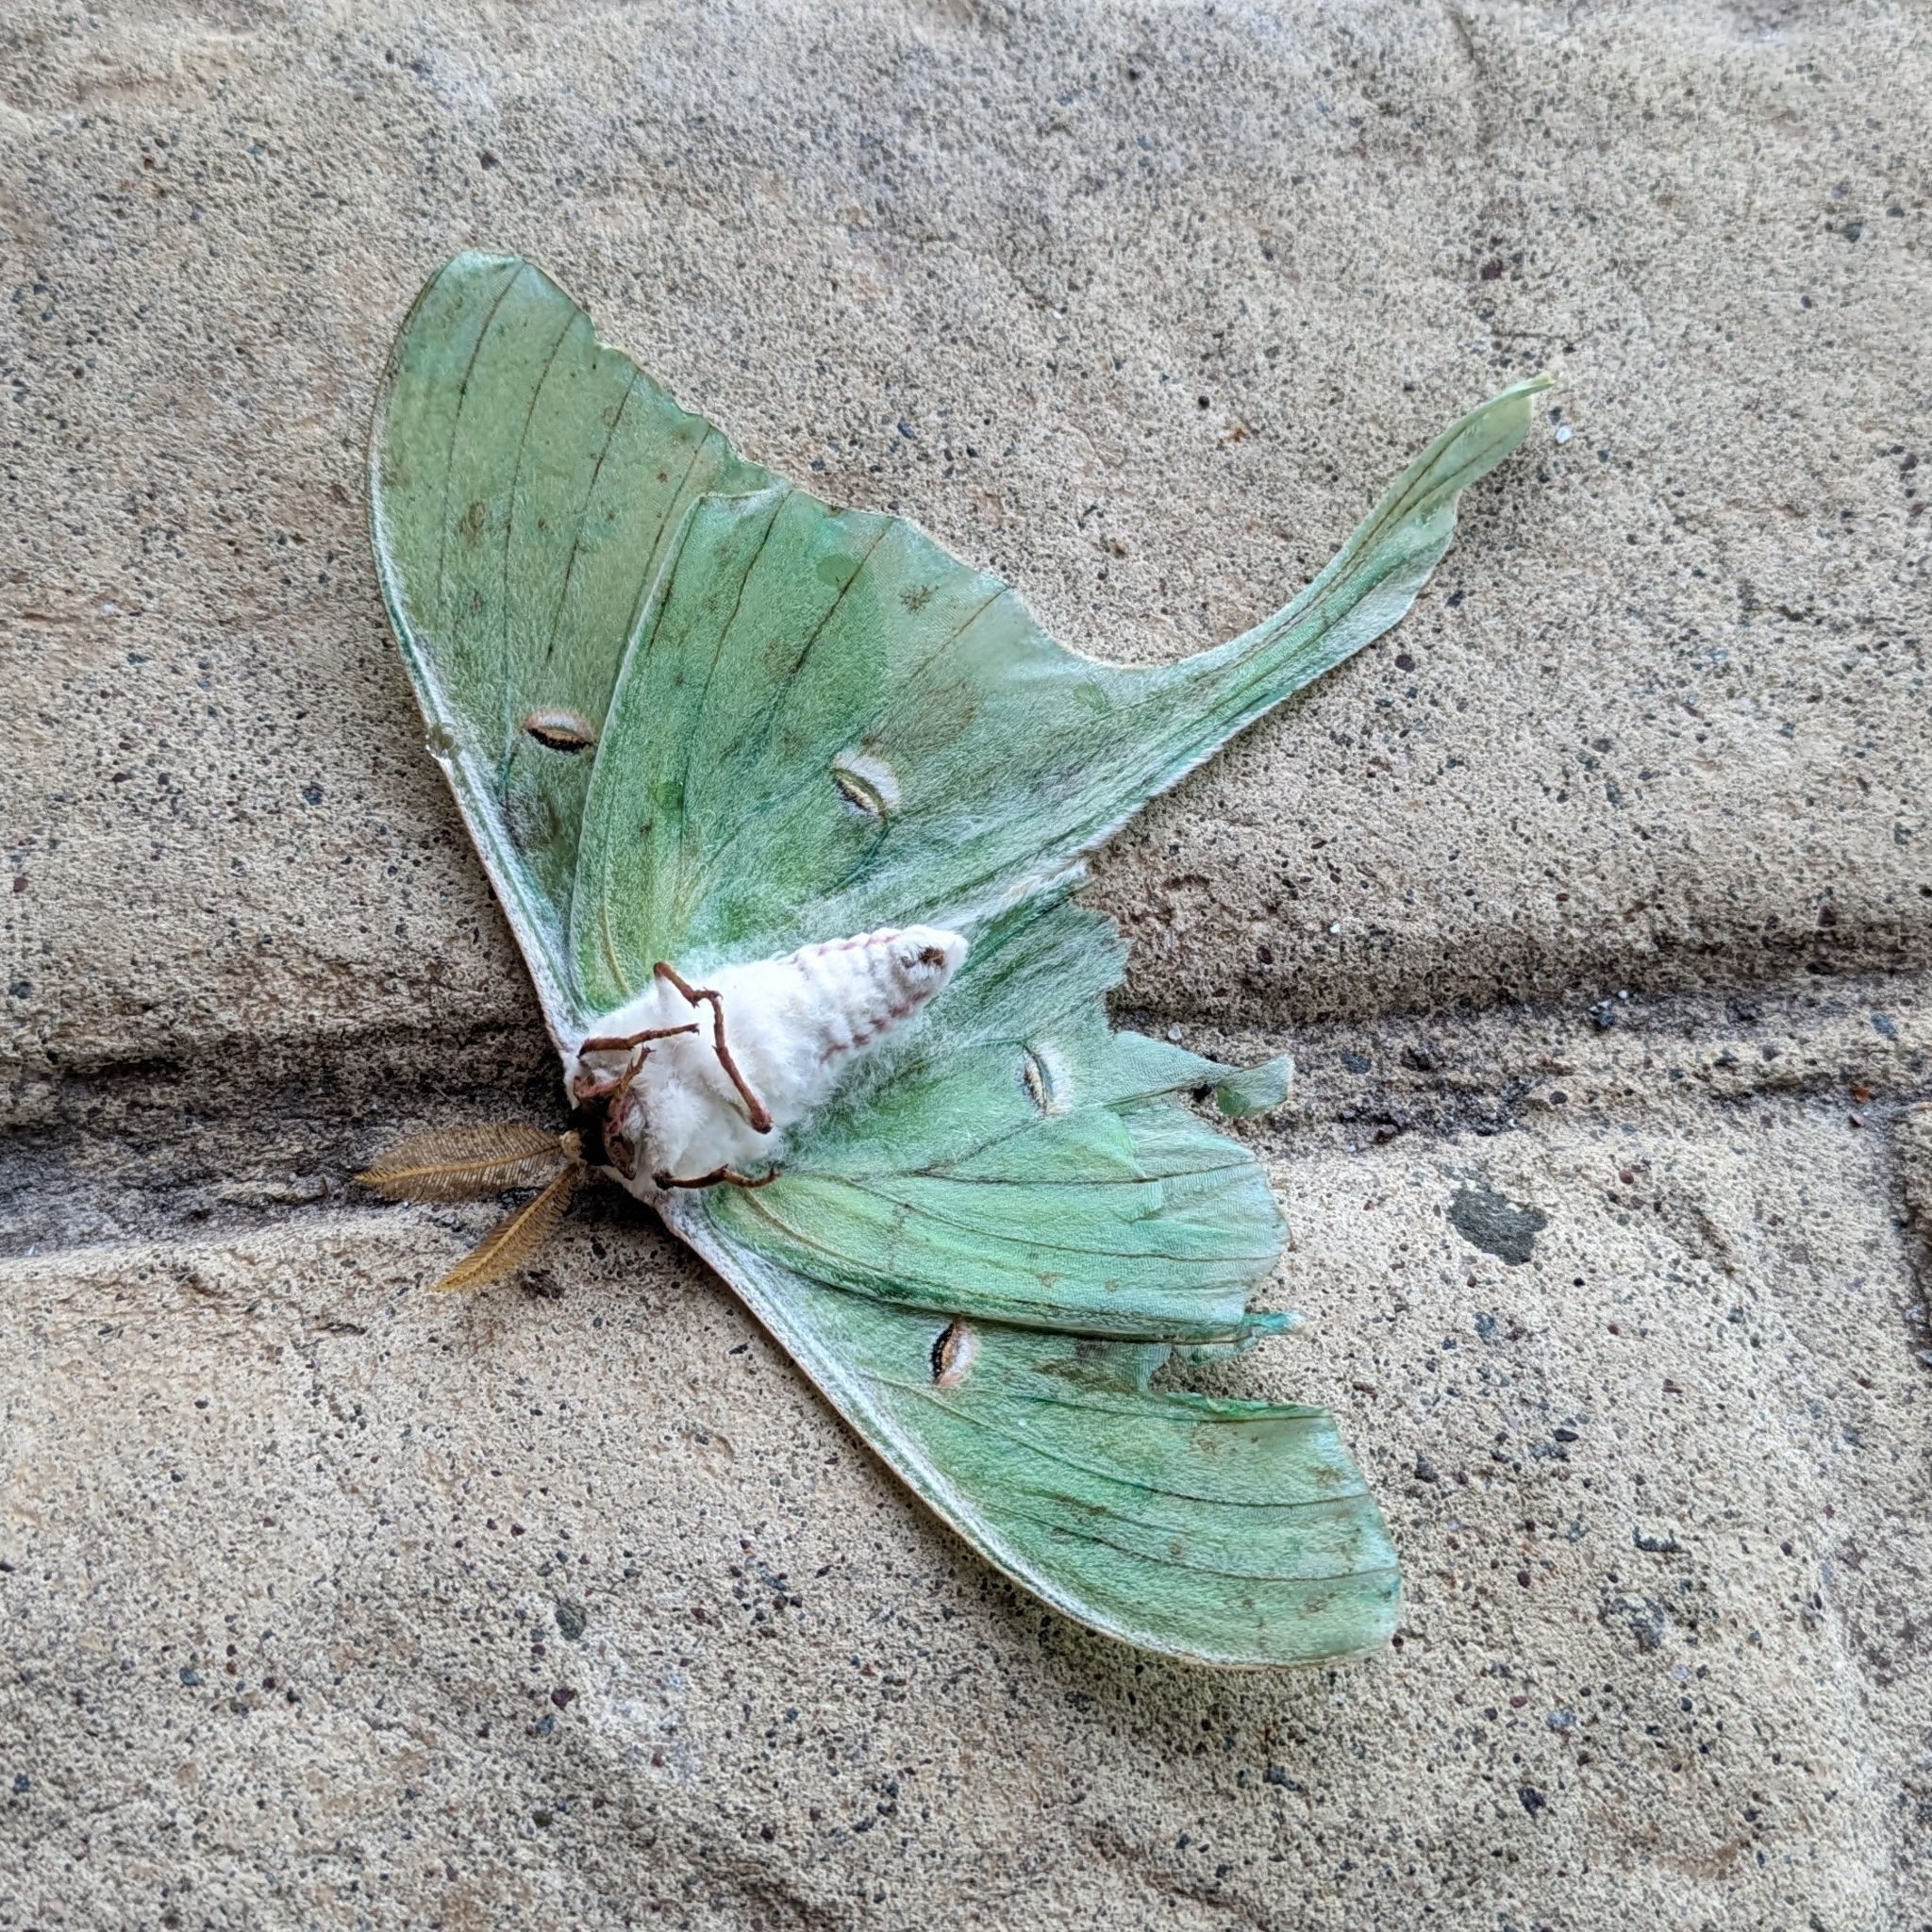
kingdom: Animalia
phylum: Arthropoda
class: Insecta
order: Lepidoptera
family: Saturniidae
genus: Actias
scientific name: Actias luna
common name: Luna moth
